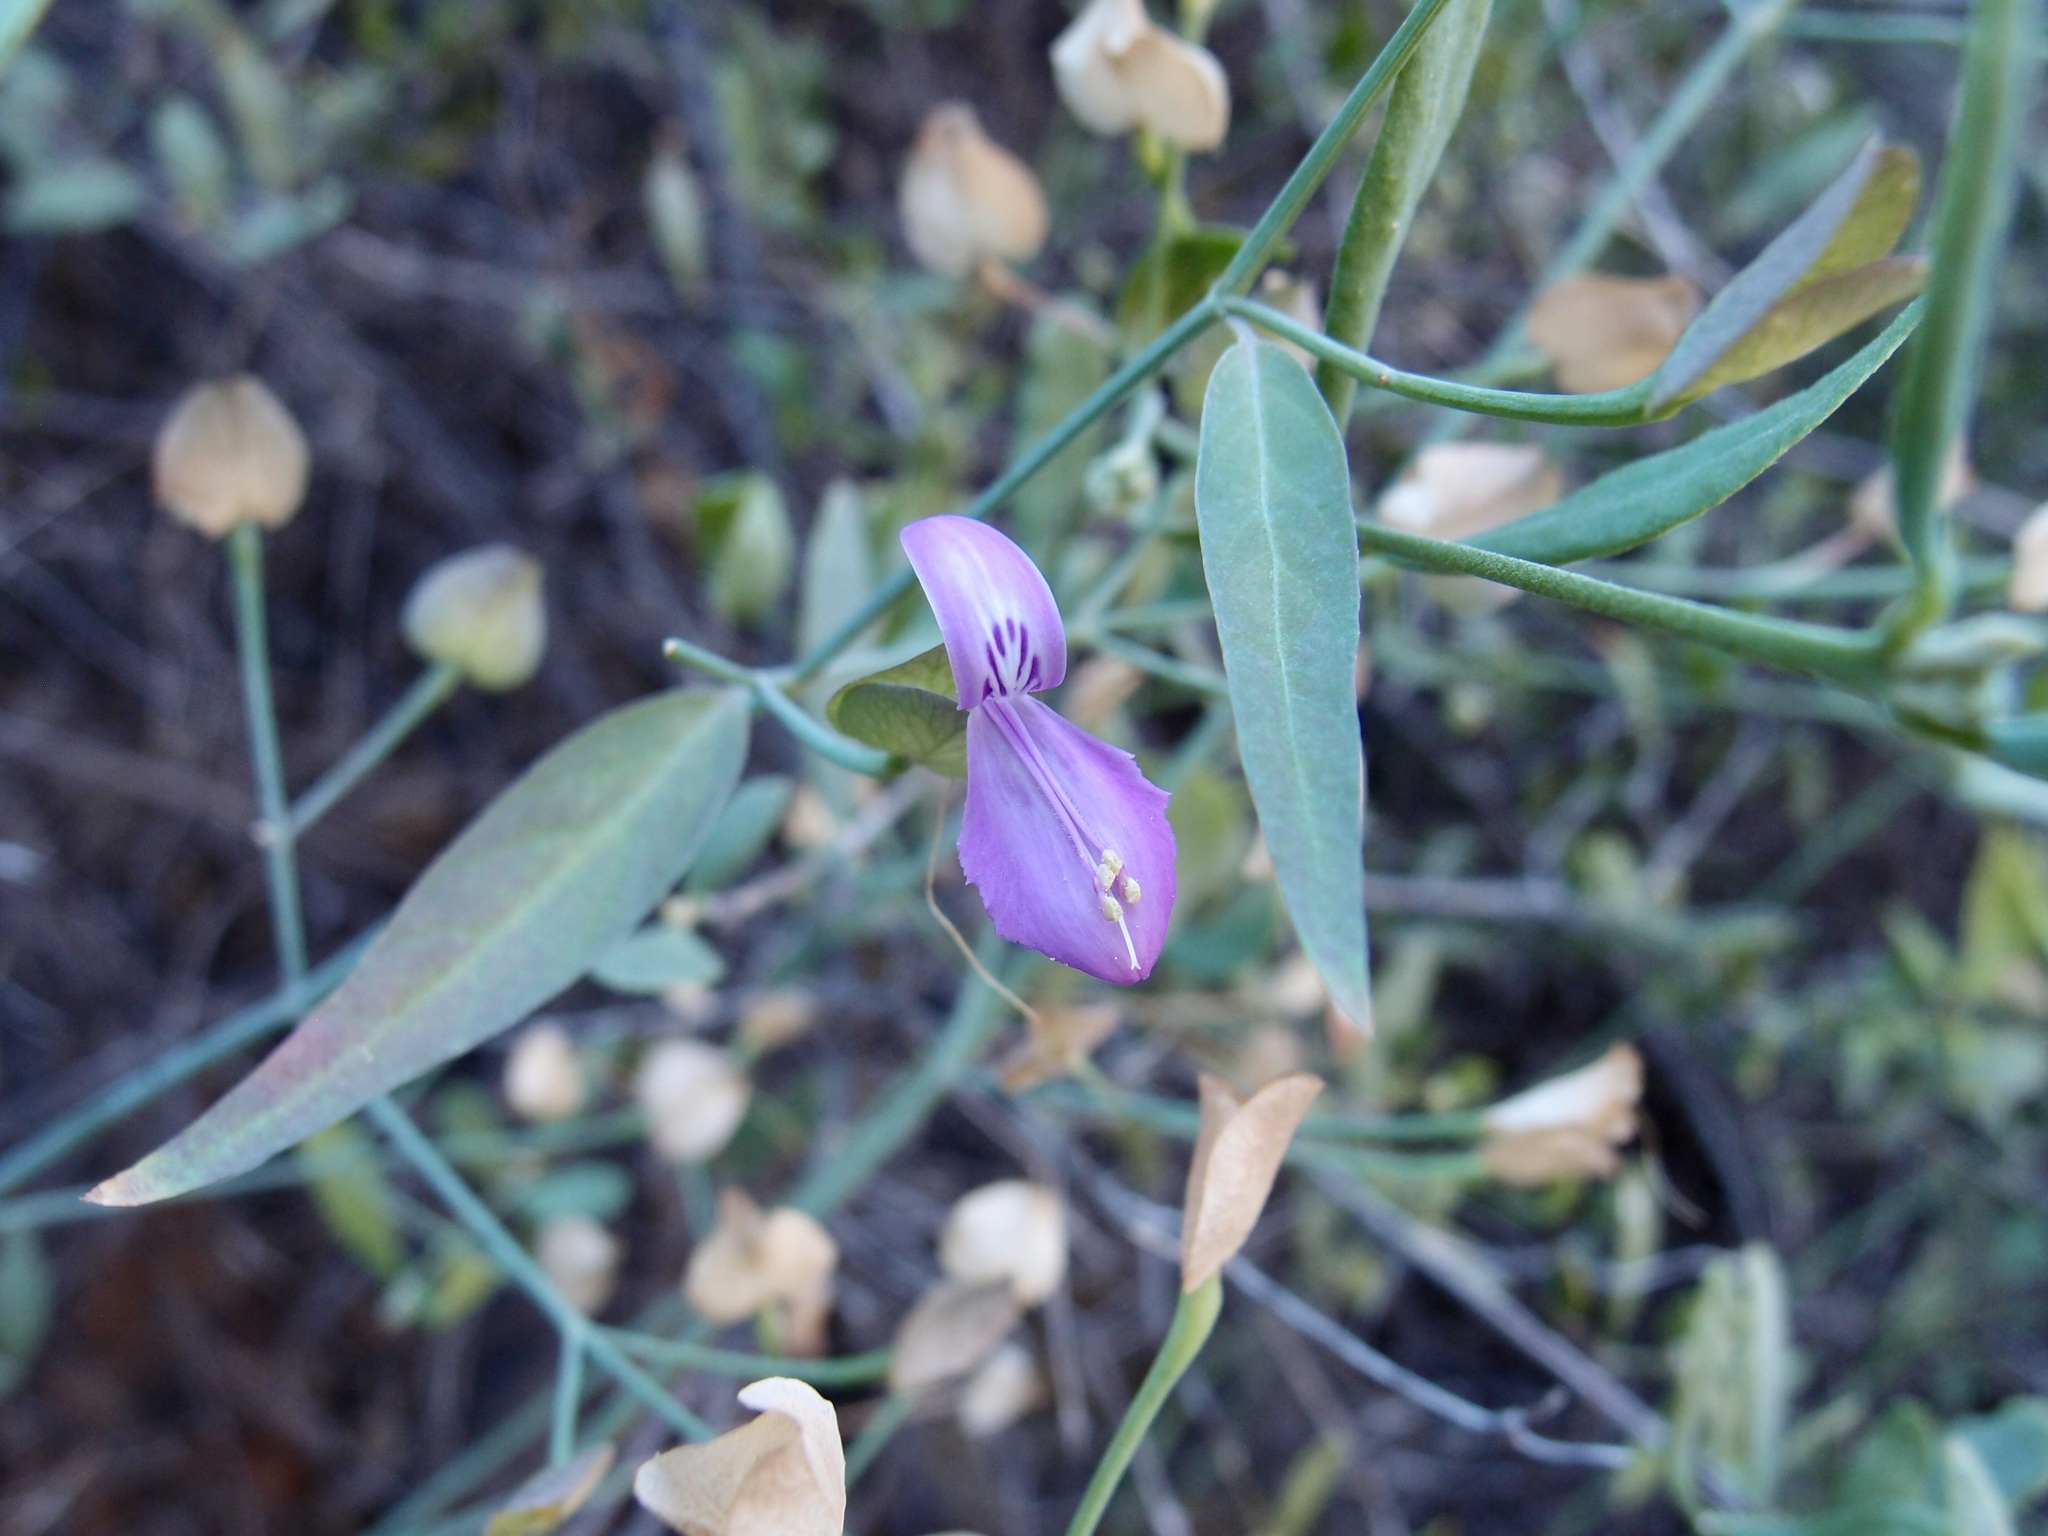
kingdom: Plantae
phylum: Tracheophyta
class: Magnoliopsida
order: Lamiales
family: Acanthaceae
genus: Dicliptera
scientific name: Dicliptera resupinata
